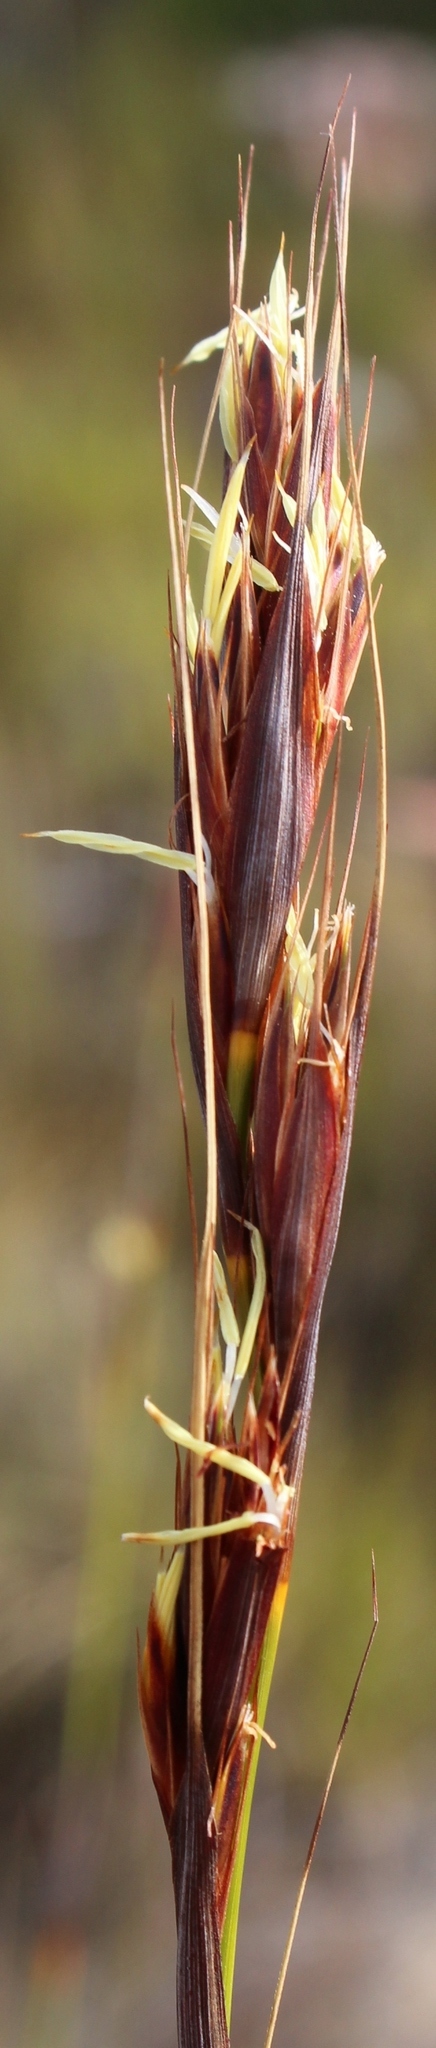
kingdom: Plantae
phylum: Tracheophyta
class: Liliopsida
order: Poales
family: Cyperaceae
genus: Tetraria
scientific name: Tetraria ustulata
